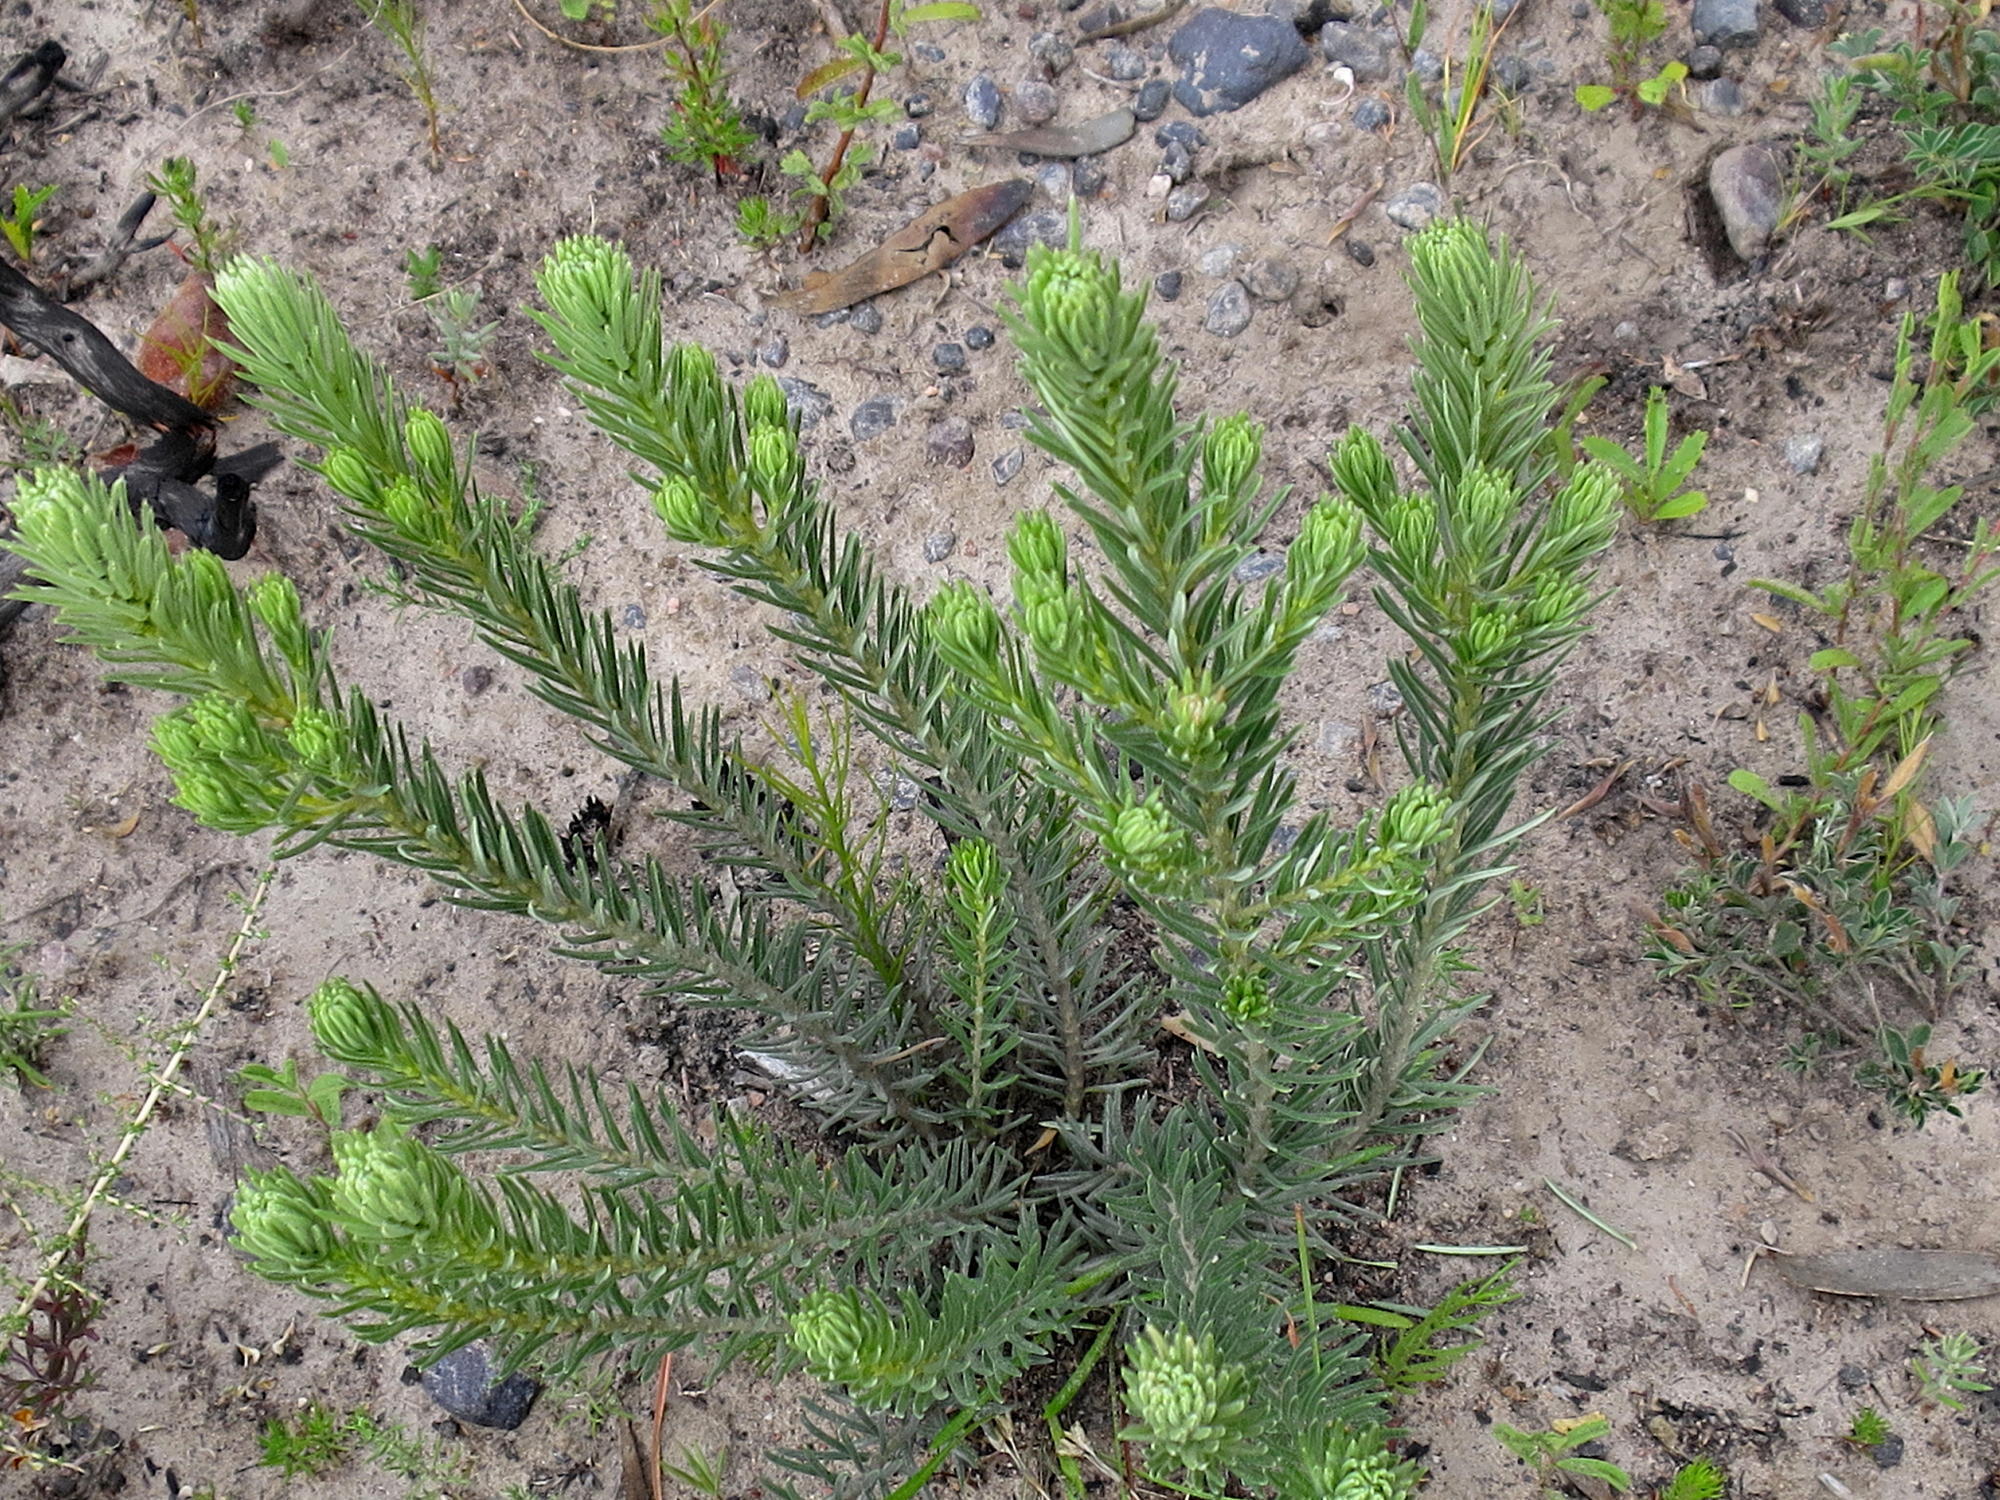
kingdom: Plantae
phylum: Tracheophyta
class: Magnoliopsida
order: Rosales
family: Rhamnaceae
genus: Phylica
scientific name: Phylica velutina
